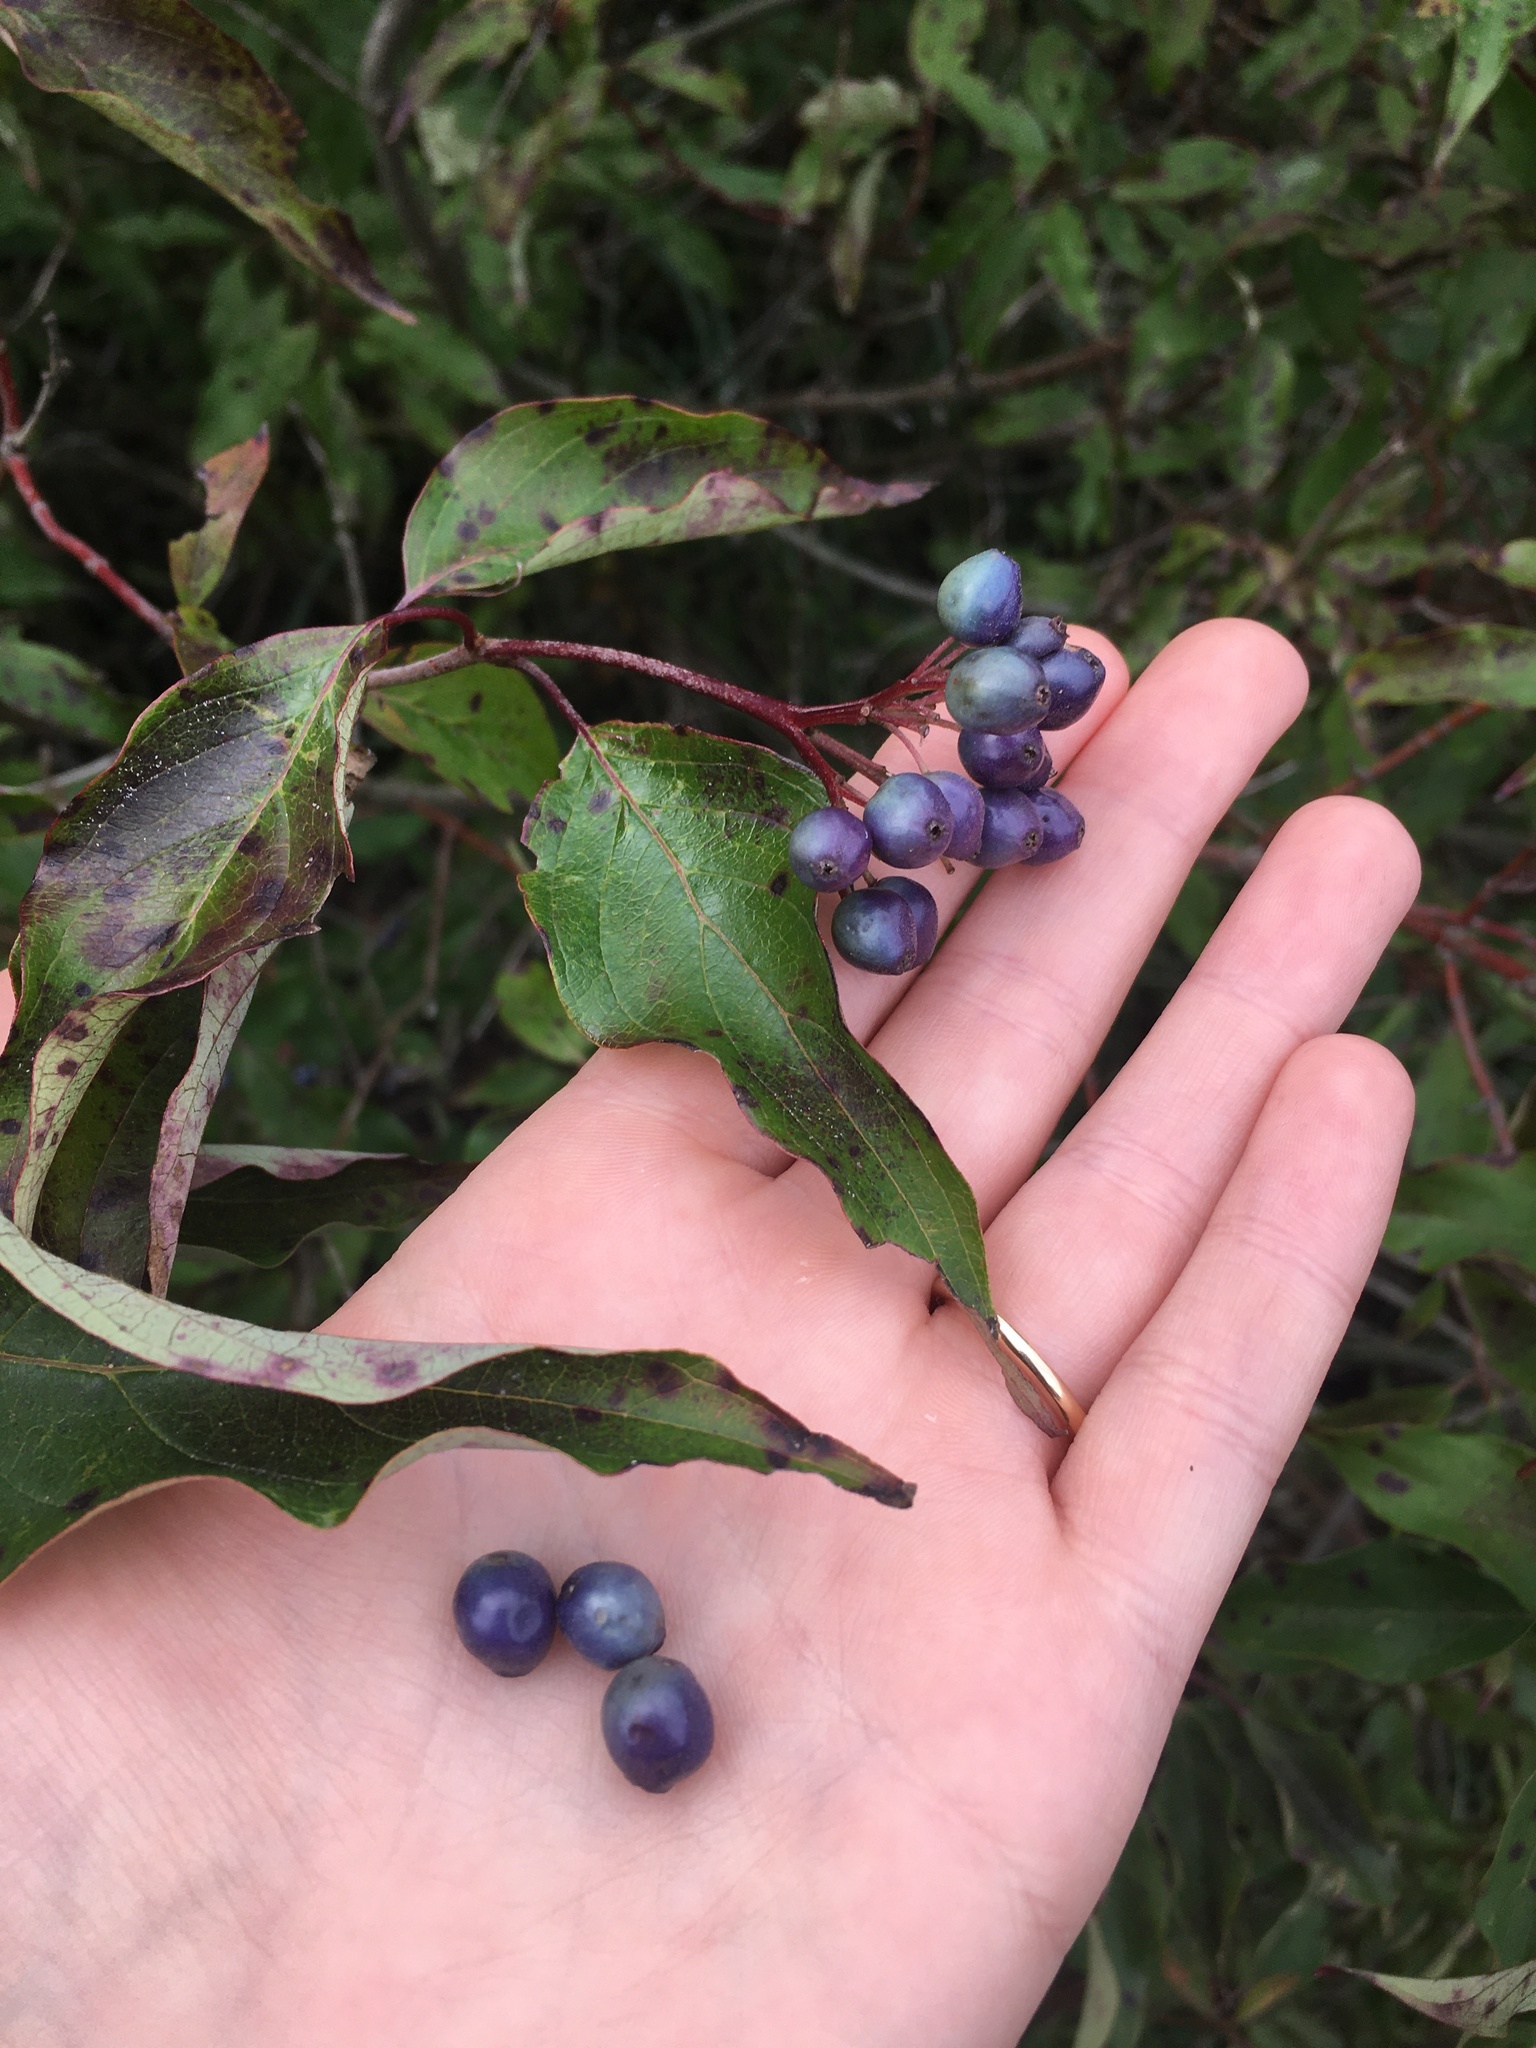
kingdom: Plantae
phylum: Tracheophyta
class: Magnoliopsida
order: Cornales
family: Cornaceae
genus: Cornus
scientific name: Cornus amomum
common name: Silky dogwood
